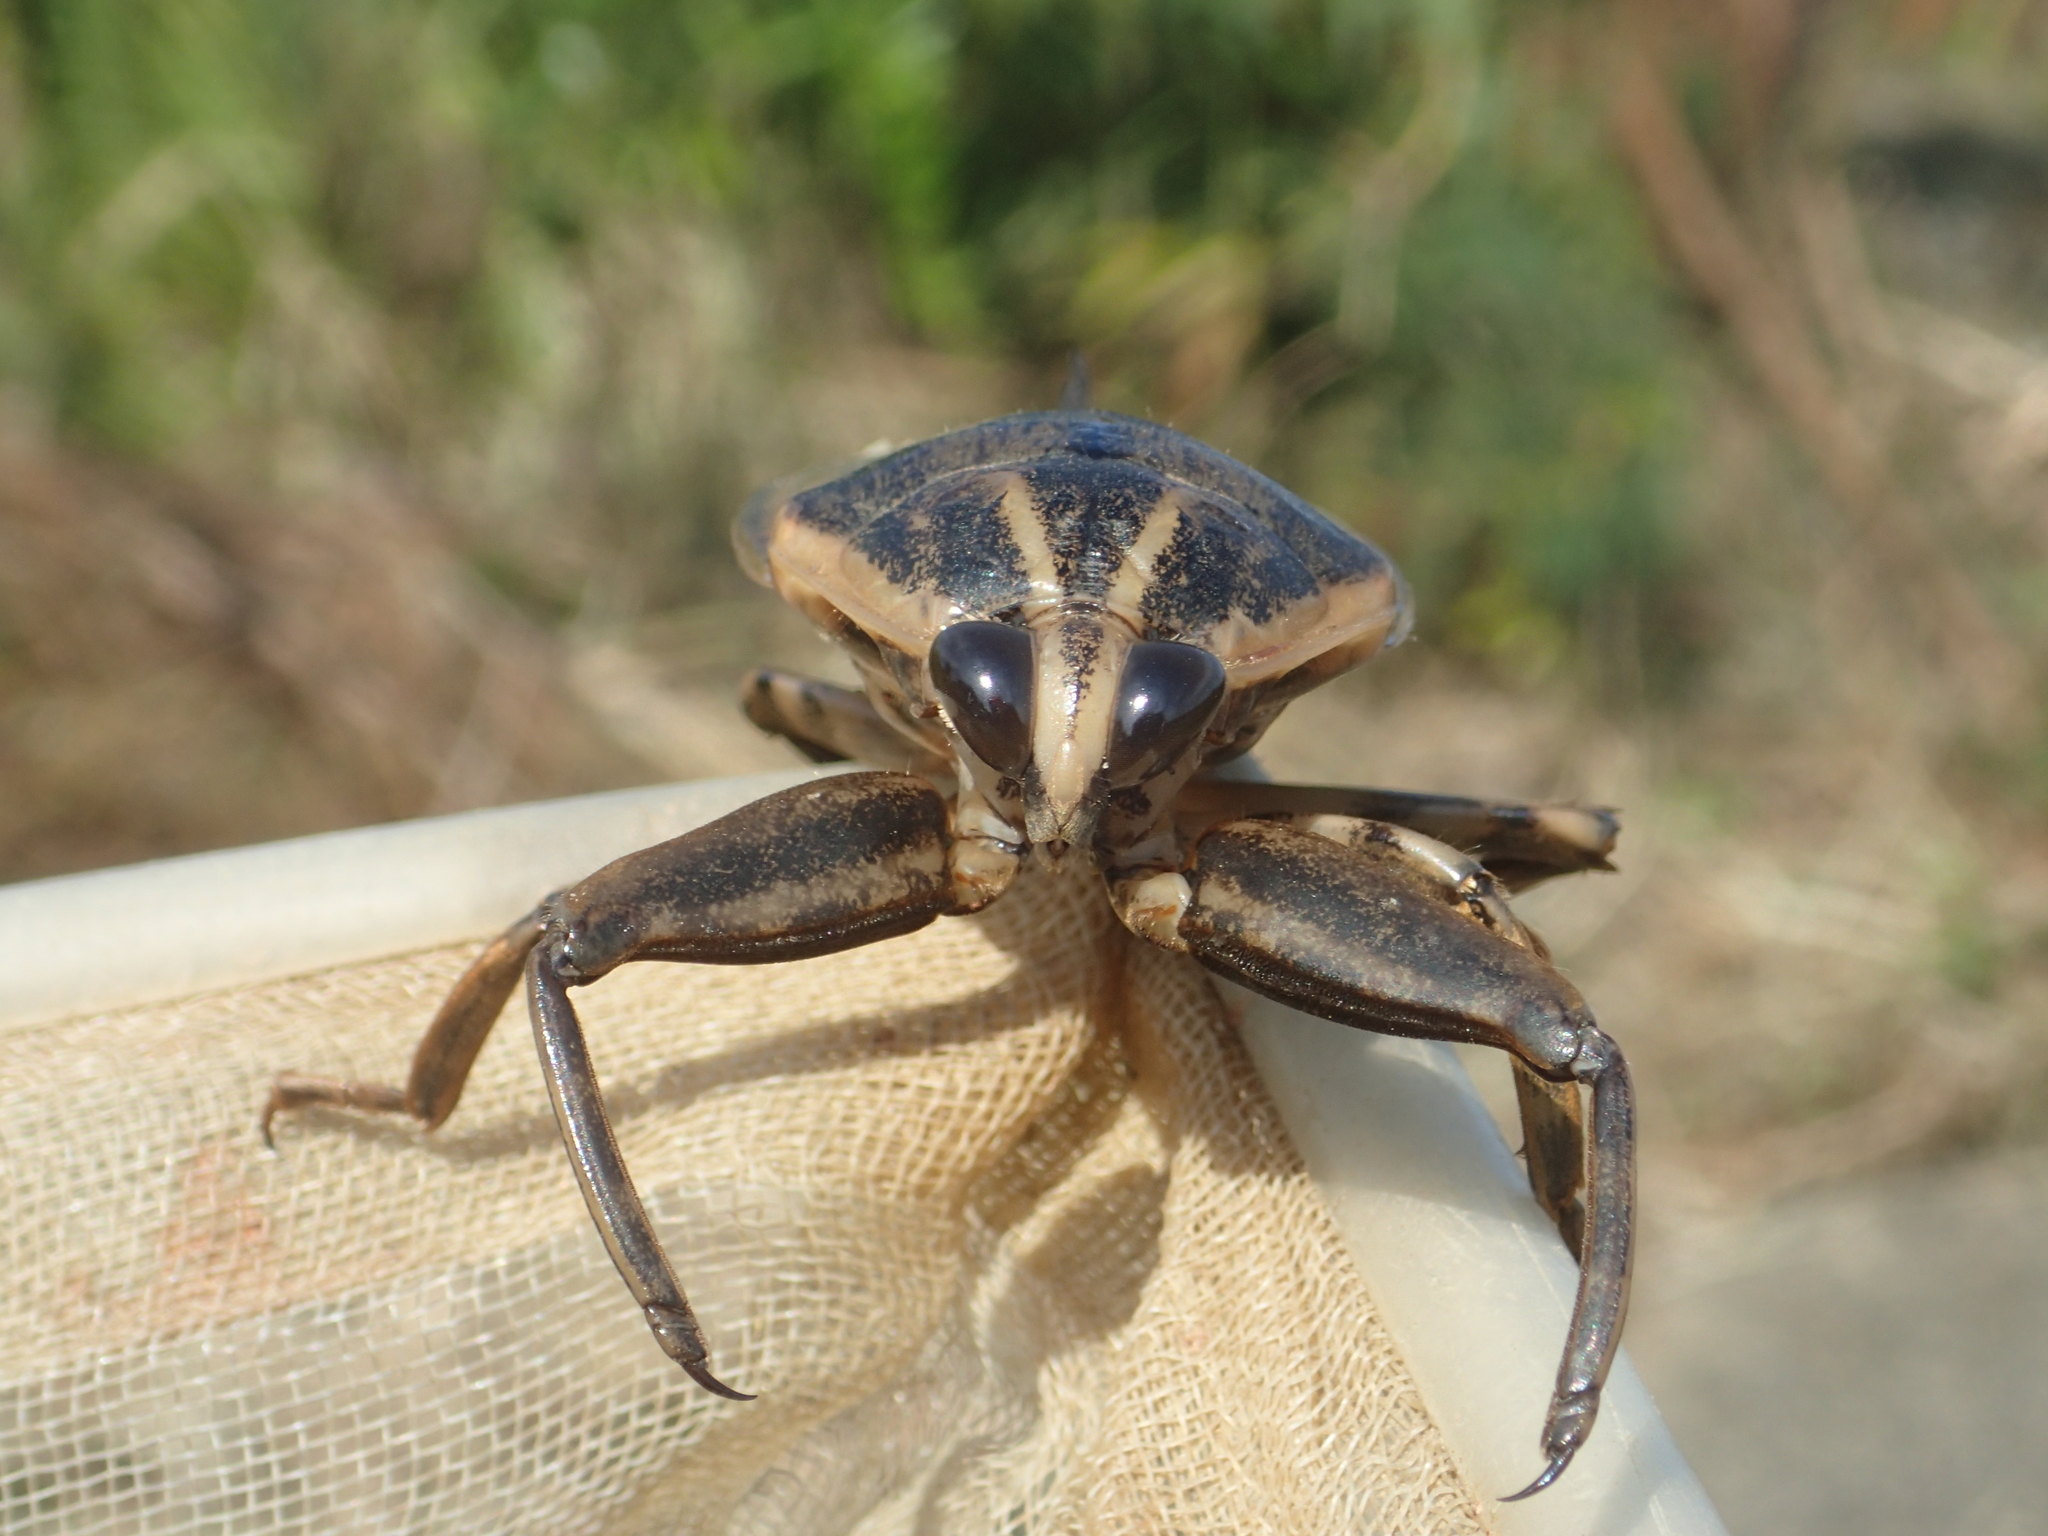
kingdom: Animalia
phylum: Arthropoda
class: Insecta
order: Hemiptera
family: Belostomatidae
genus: Lethocerus
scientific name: Lethocerus indicus
